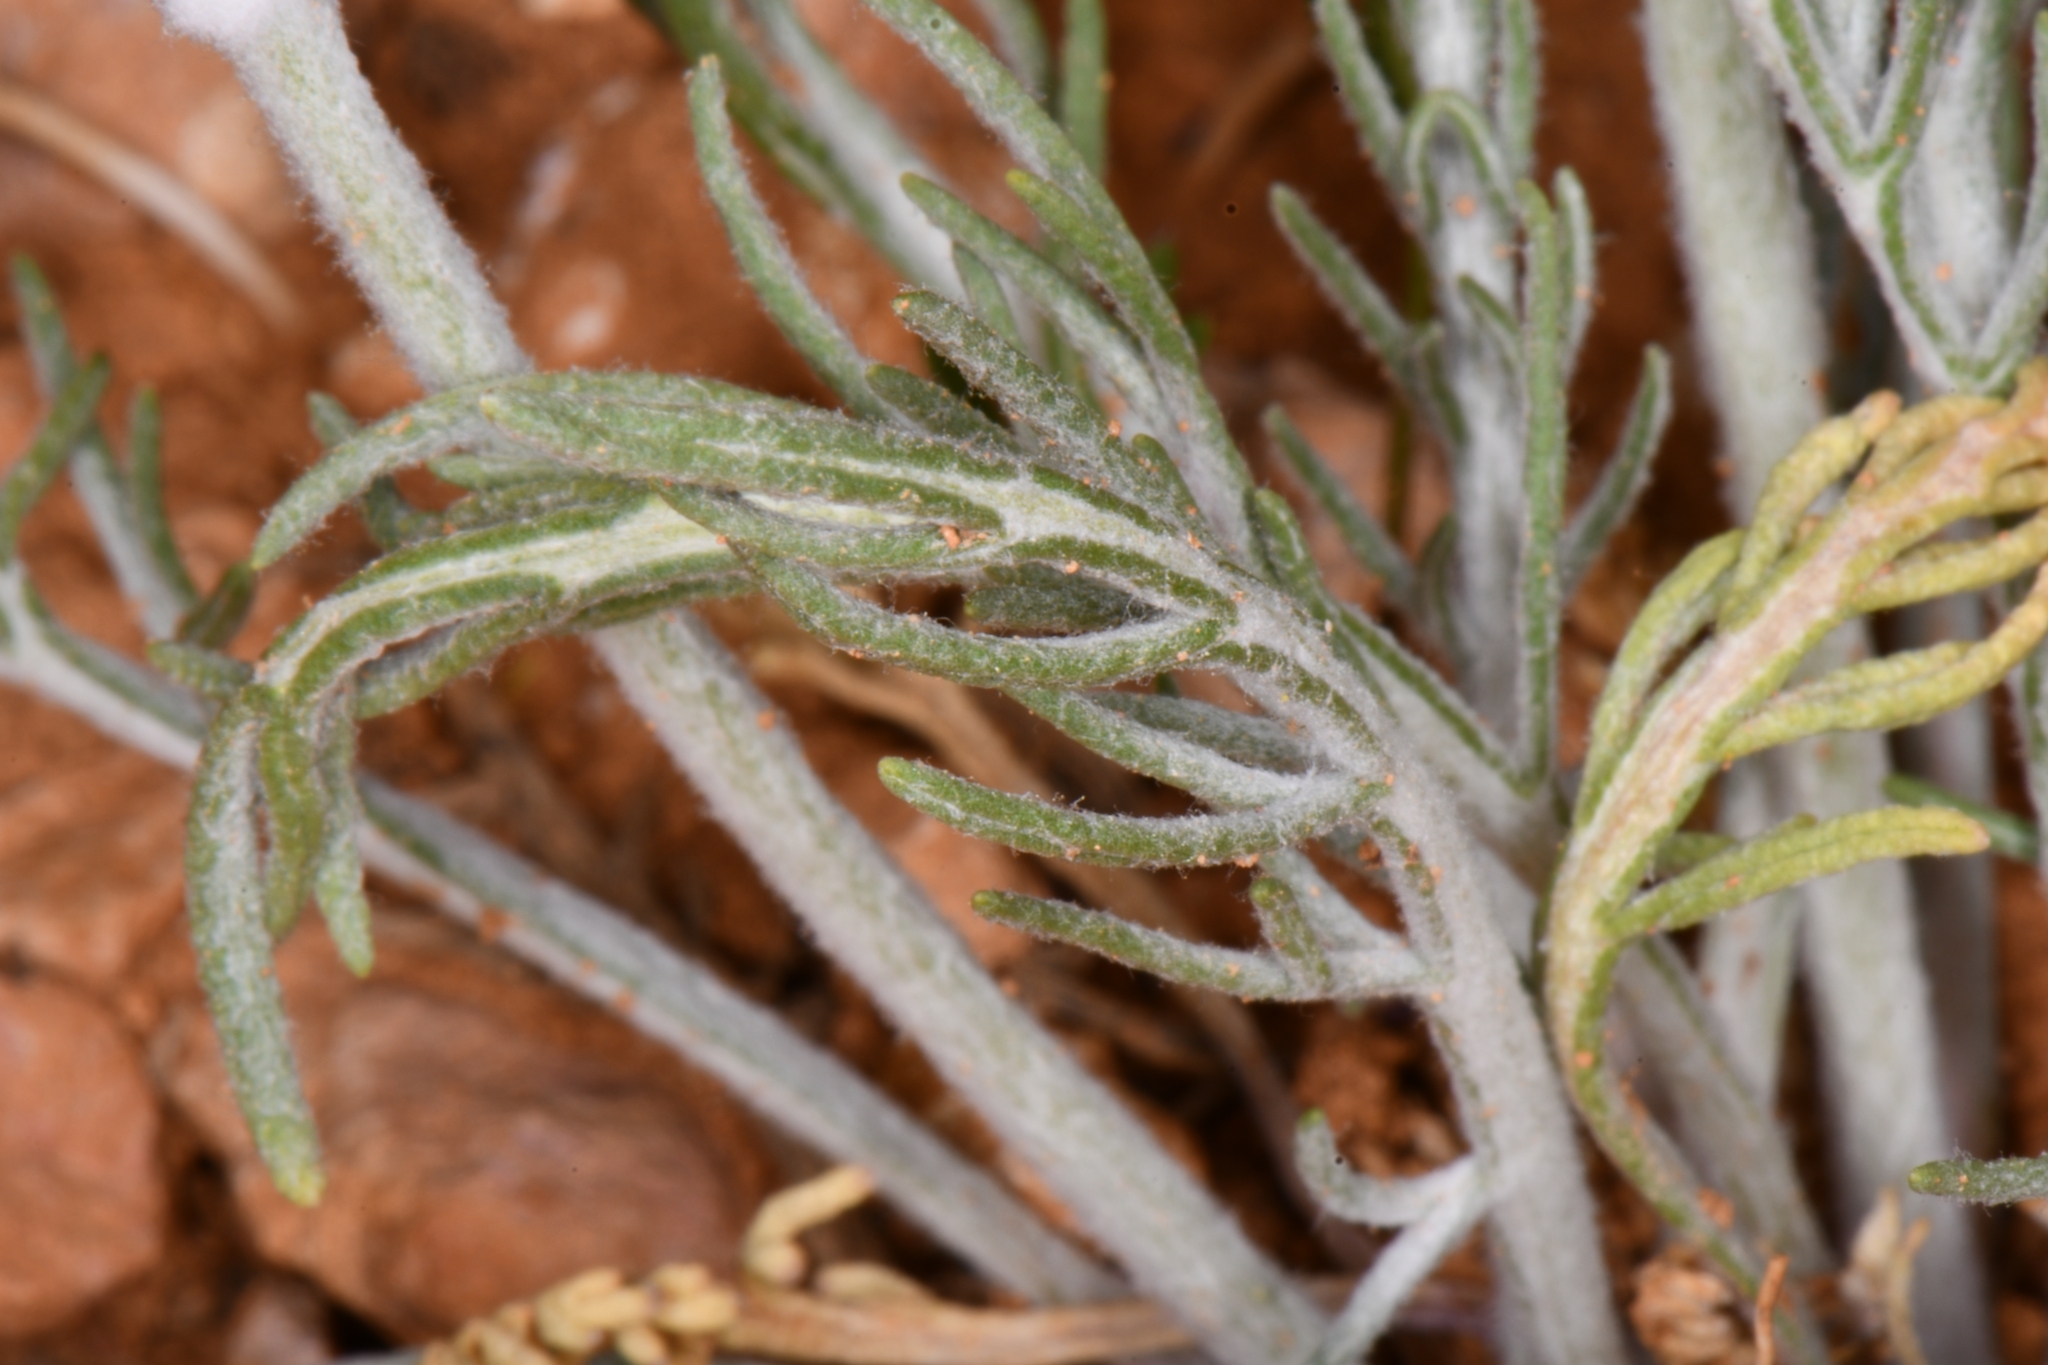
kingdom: Plantae
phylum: Tracheophyta
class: Magnoliopsida
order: Asterales
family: Asteraceae
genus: Hymenopappus
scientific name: Hymenopappus filifolius
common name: Columbia cutleaf
